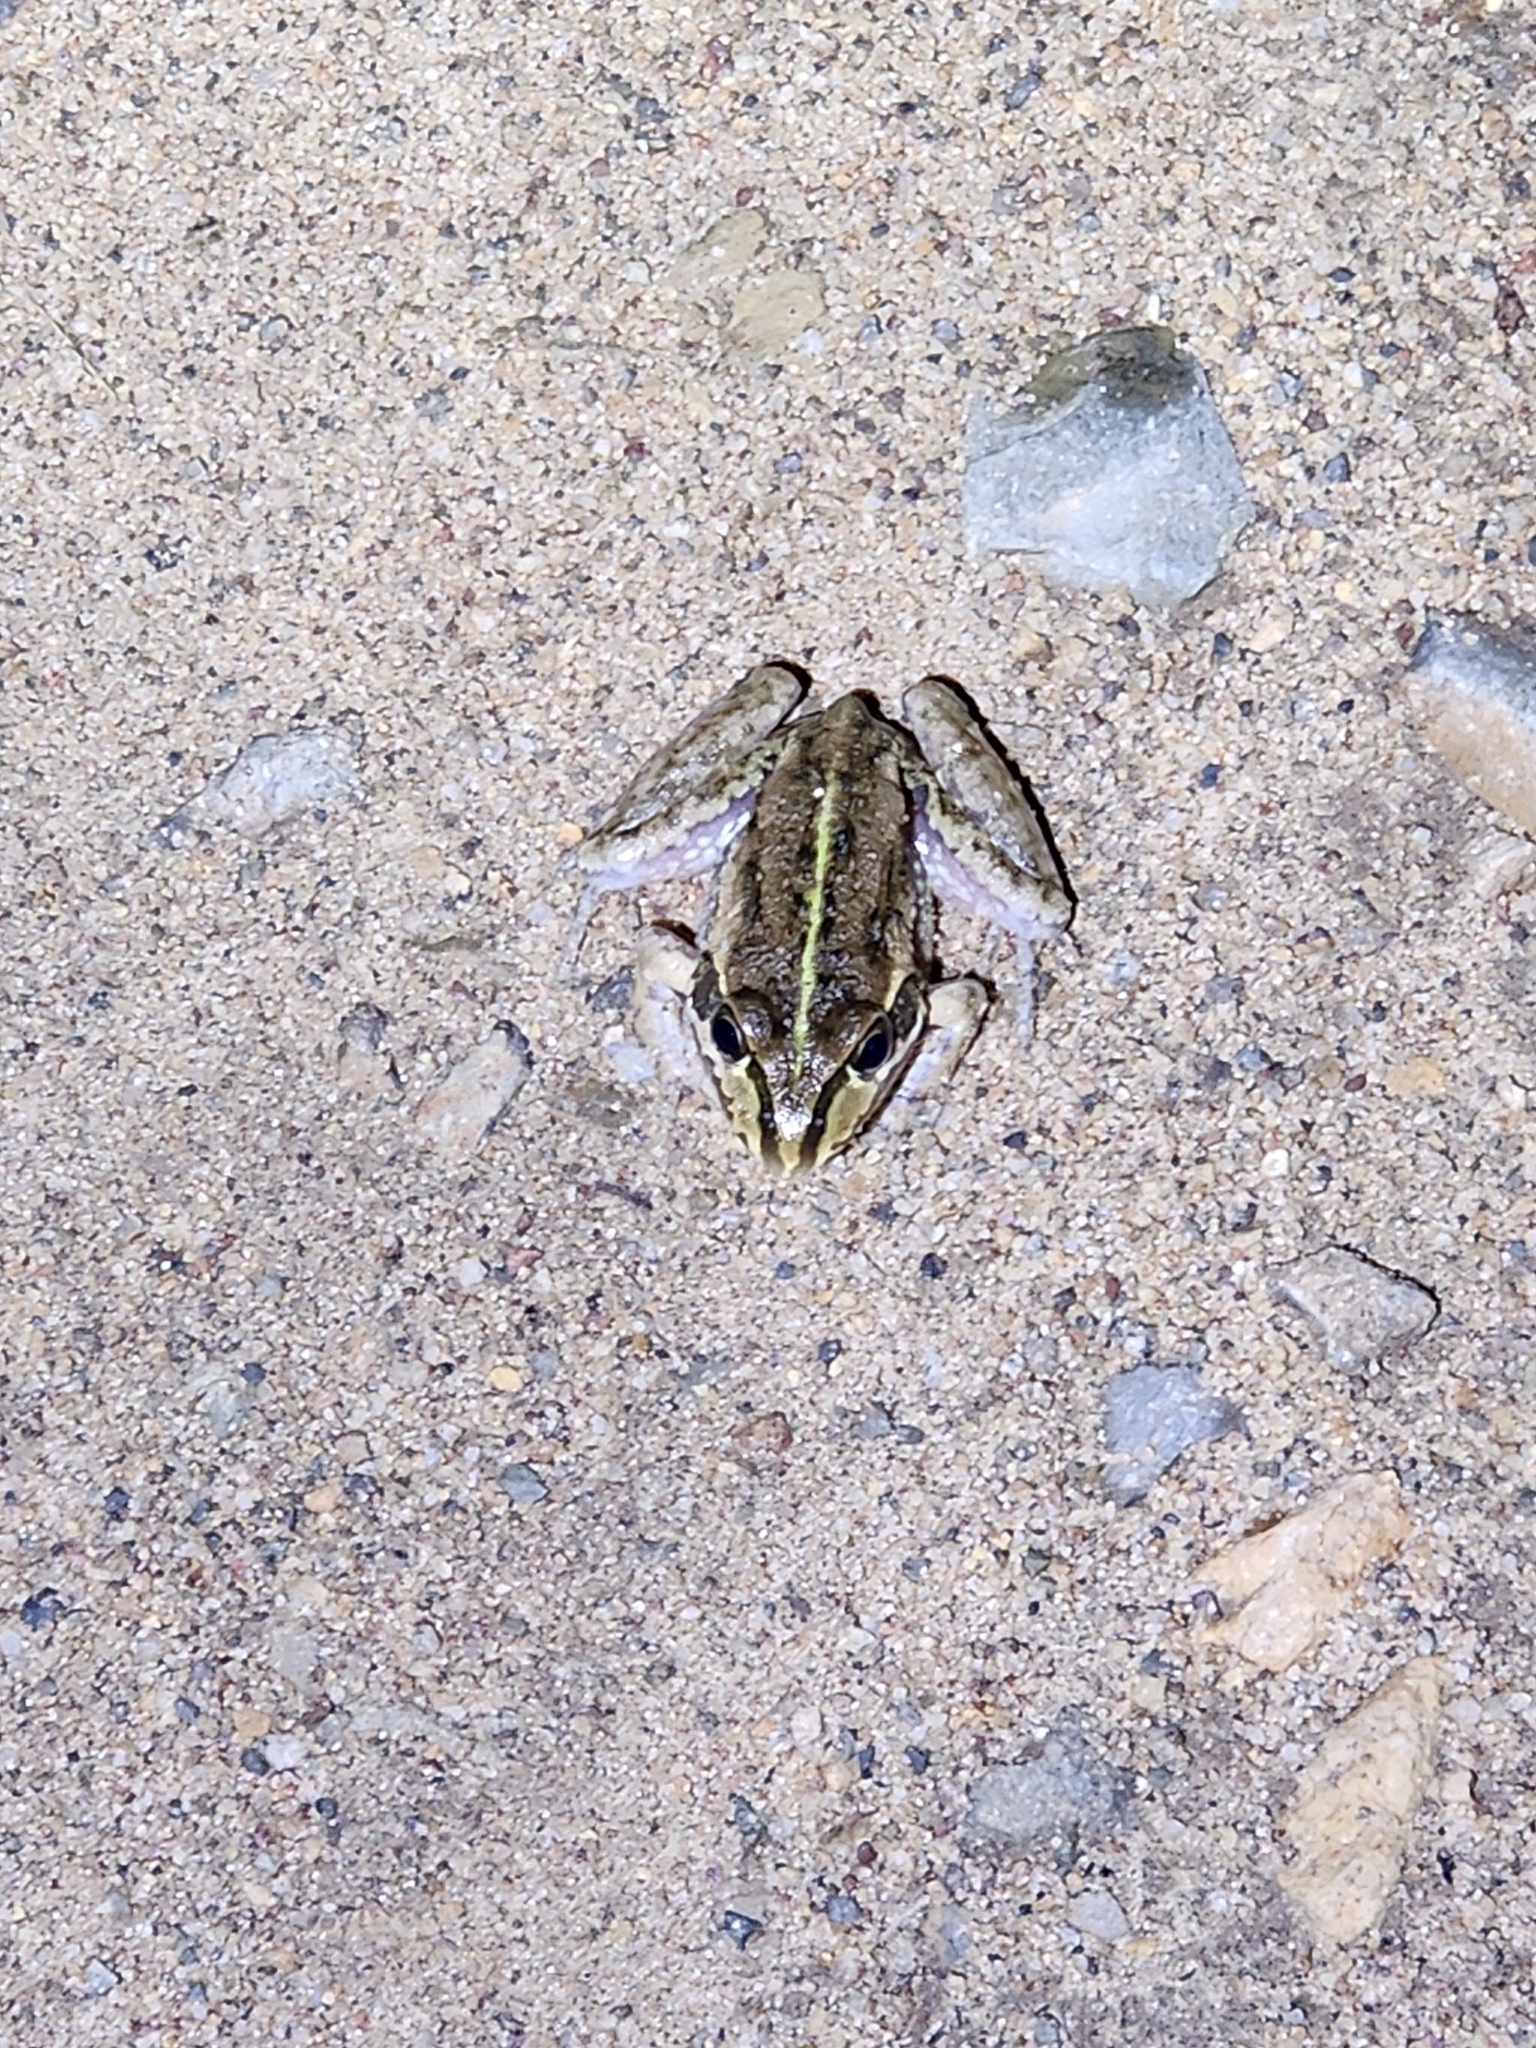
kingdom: Animalia
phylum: Chordata
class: Amphibia
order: Anura
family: Pelodryadidae
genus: Ranoidea
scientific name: Ranoidea alboguttata
